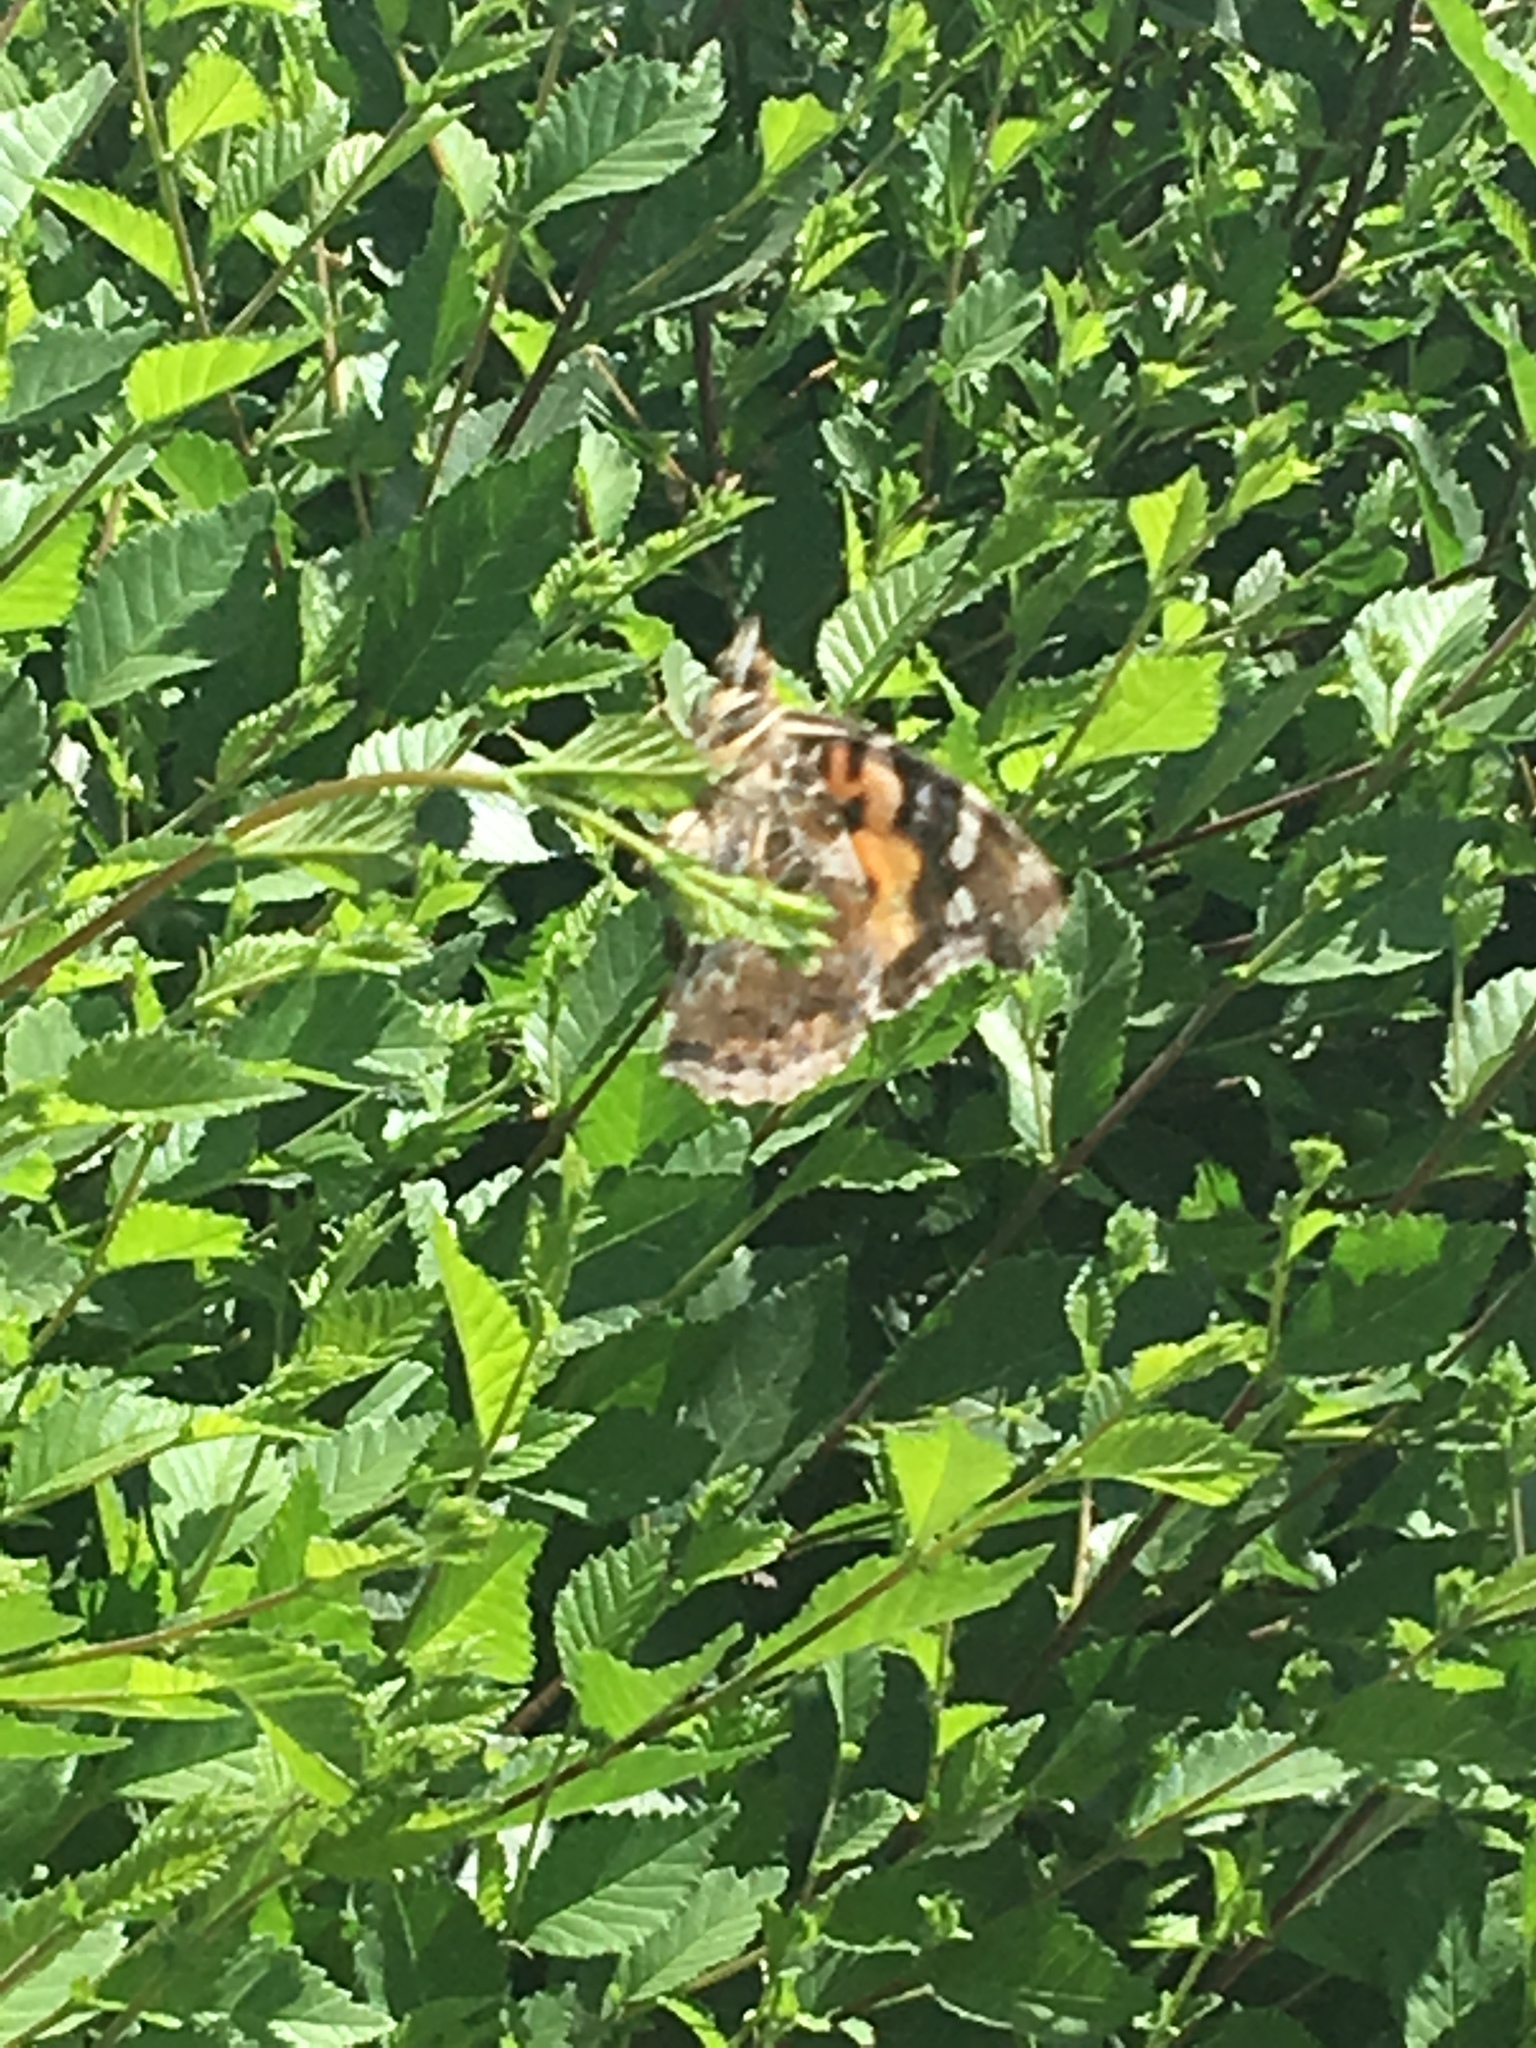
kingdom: Animalia
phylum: Arthropoda
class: Insecta
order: Lepidoptera
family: Nymphalidae
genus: Vanessa
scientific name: Vanessa indica
